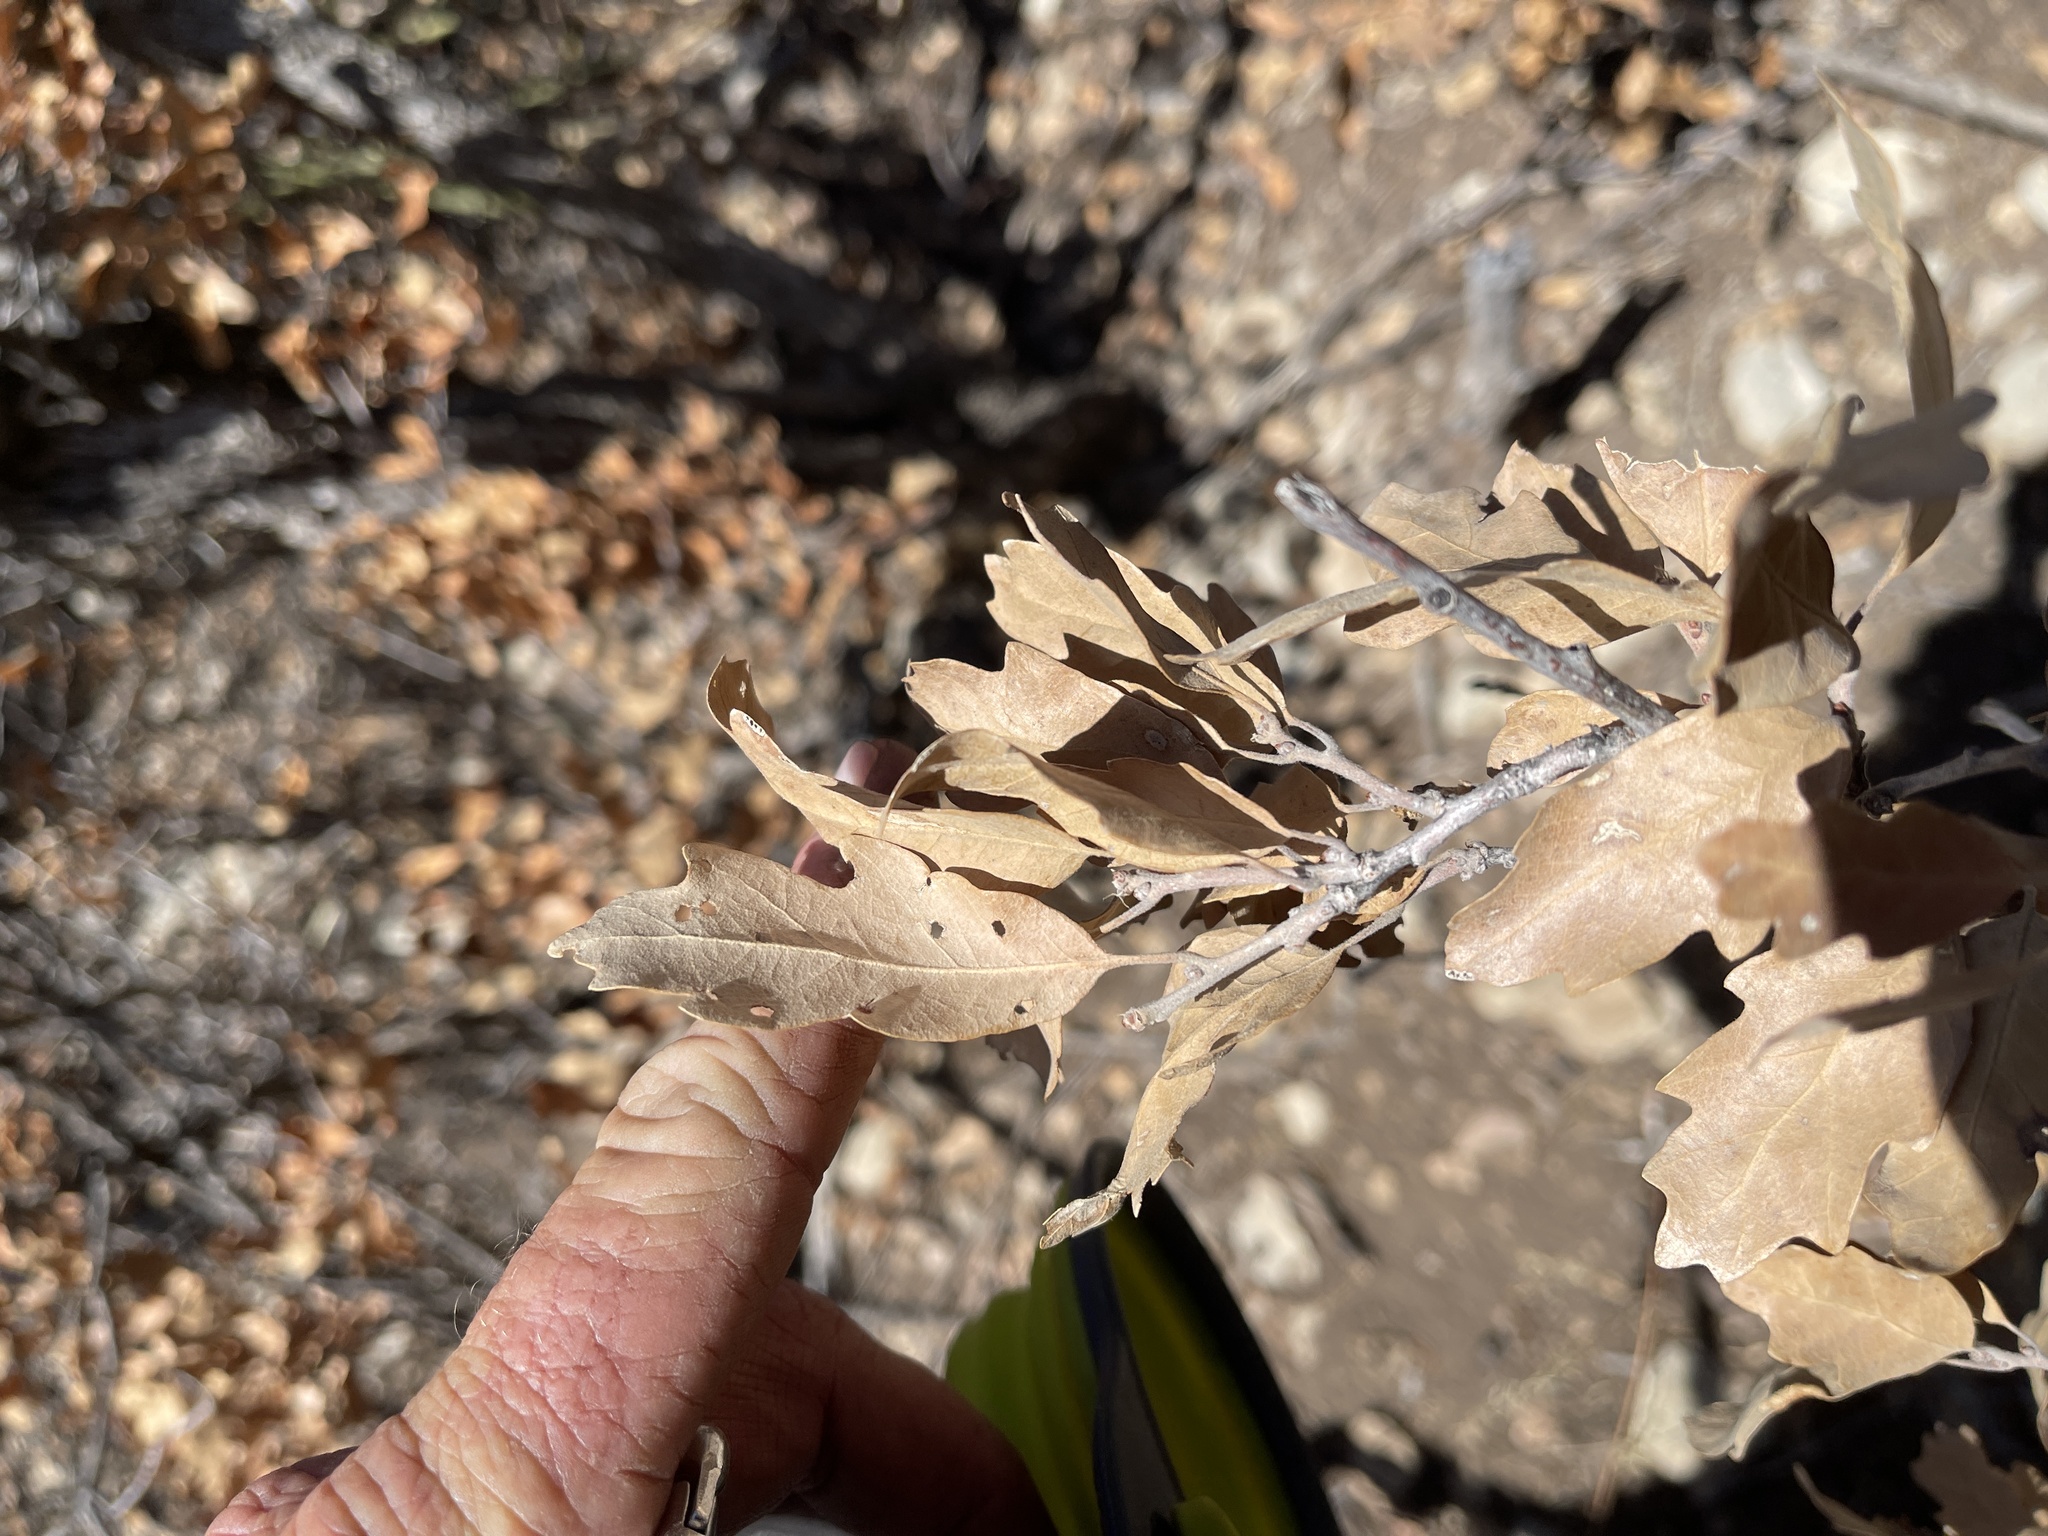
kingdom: Plantae
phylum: Tracheophyta
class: Magnoliopsida
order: Fagales
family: Fagaceae
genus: Quercus
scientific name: Quercus undulata
